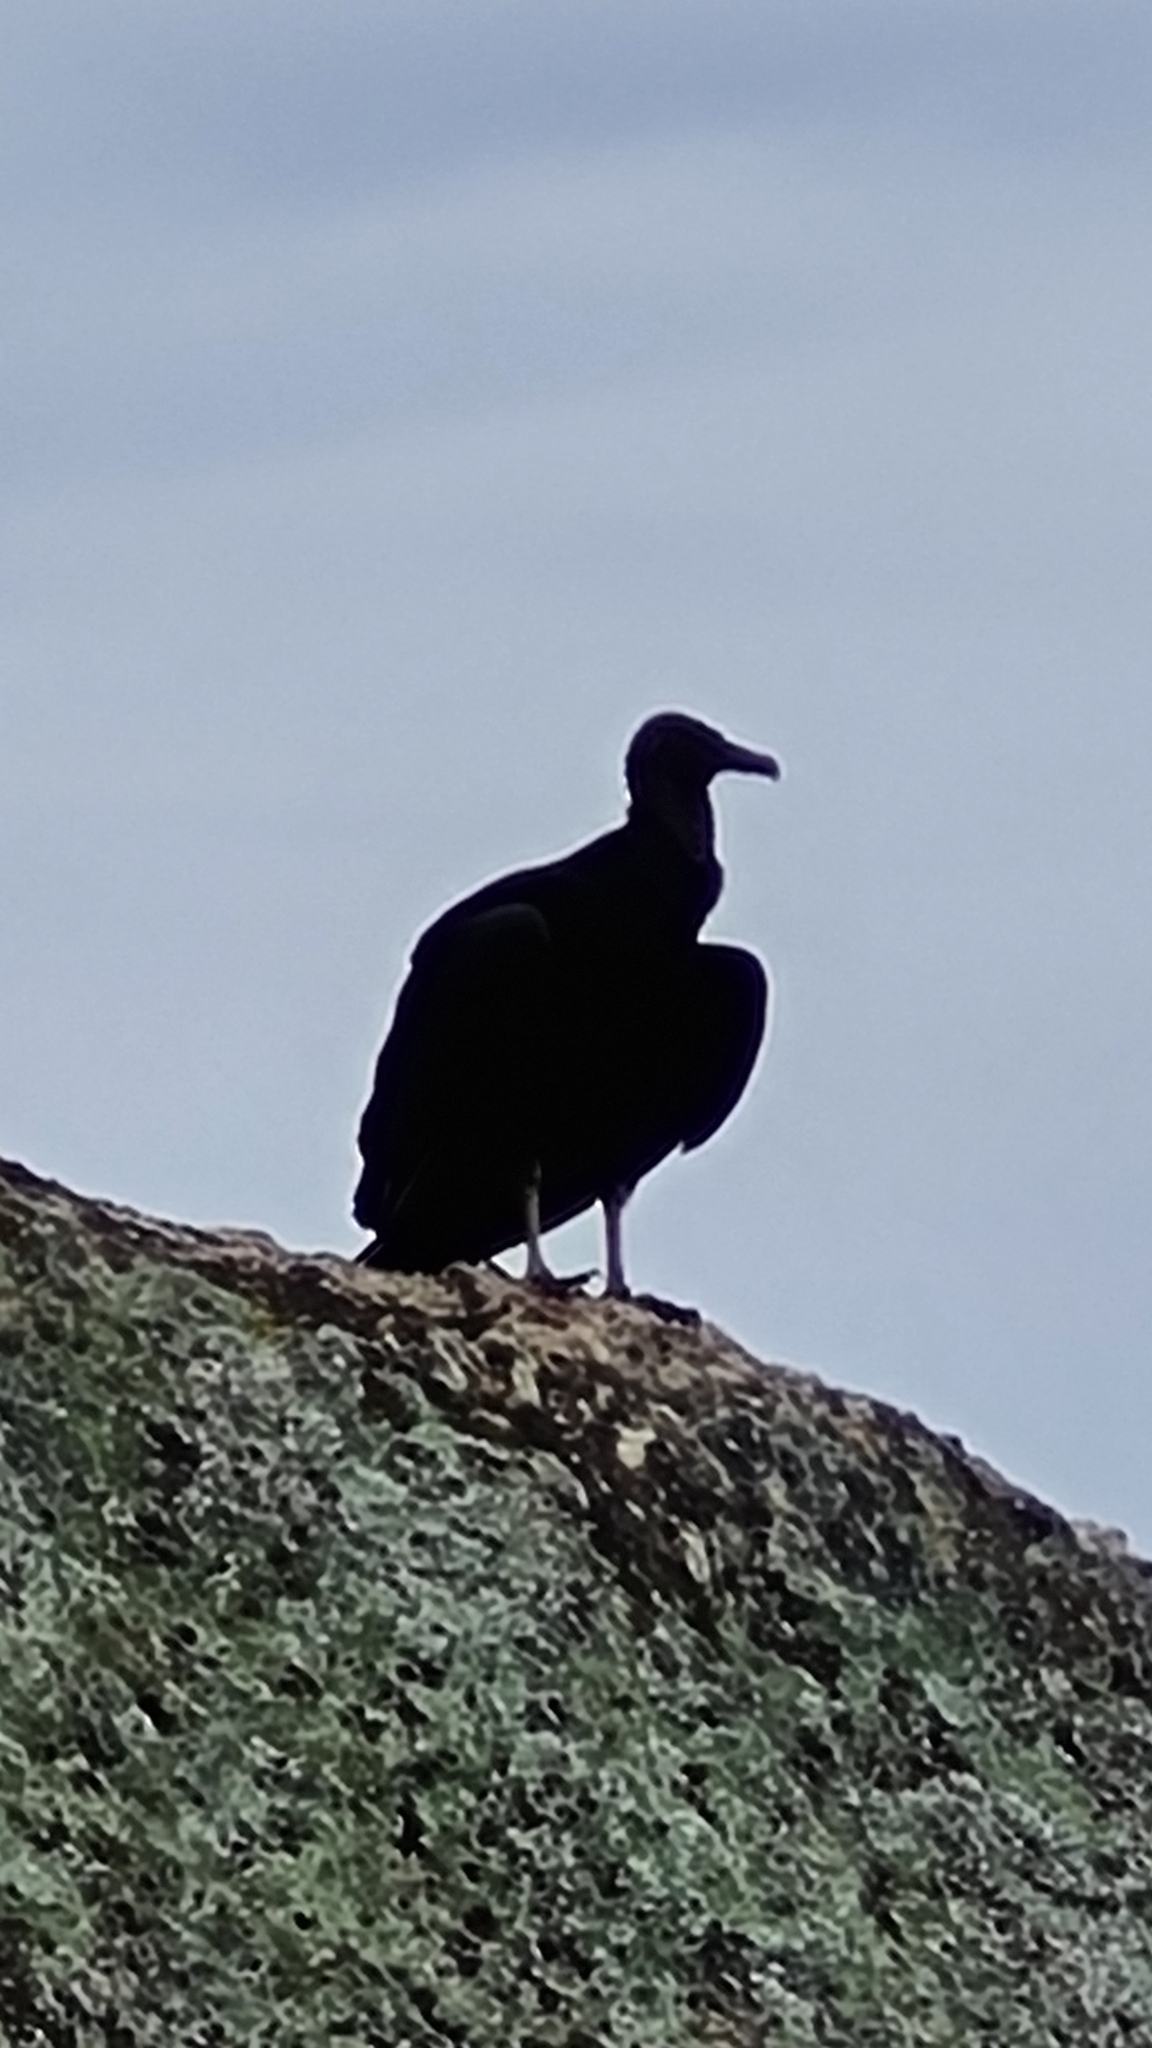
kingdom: Animalia
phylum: Chordata
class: Aves
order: Accipitriformes
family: Cathartidae
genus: Coragyps
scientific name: Coragyps atratus
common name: Black vulture
